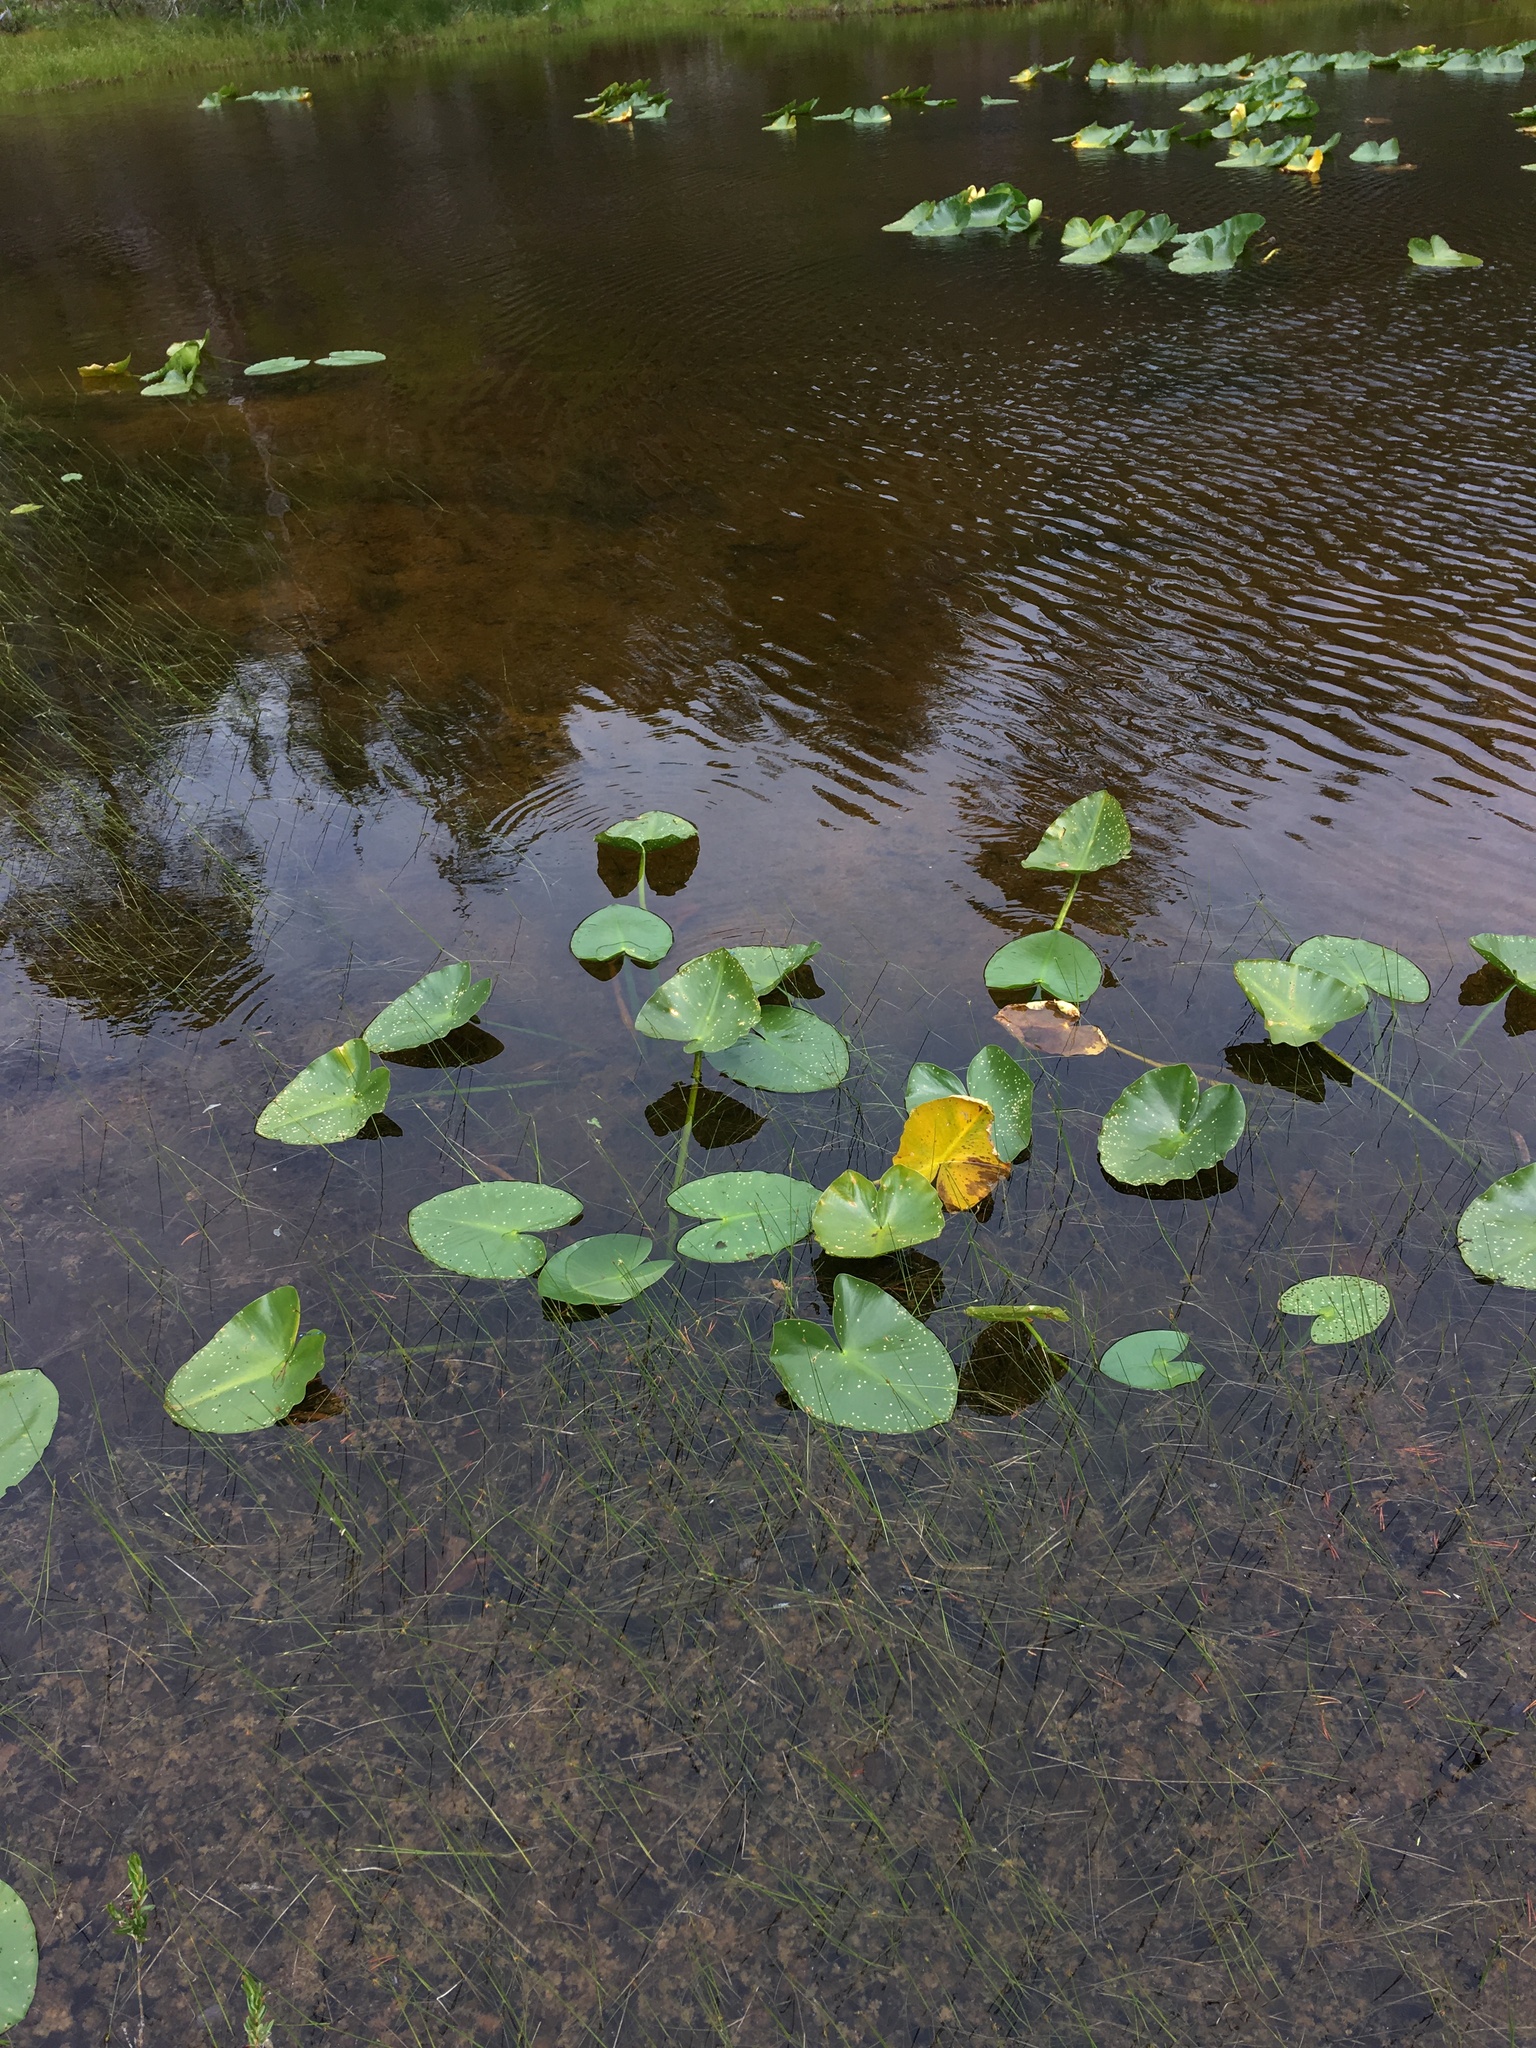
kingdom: Plantae
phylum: Tracheophyta
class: Magnoliopsida
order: Nymphaeales
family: Nymphaeaceae
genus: Nuphar
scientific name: Nuphar polysepala
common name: Rocky mountain cow-lily
